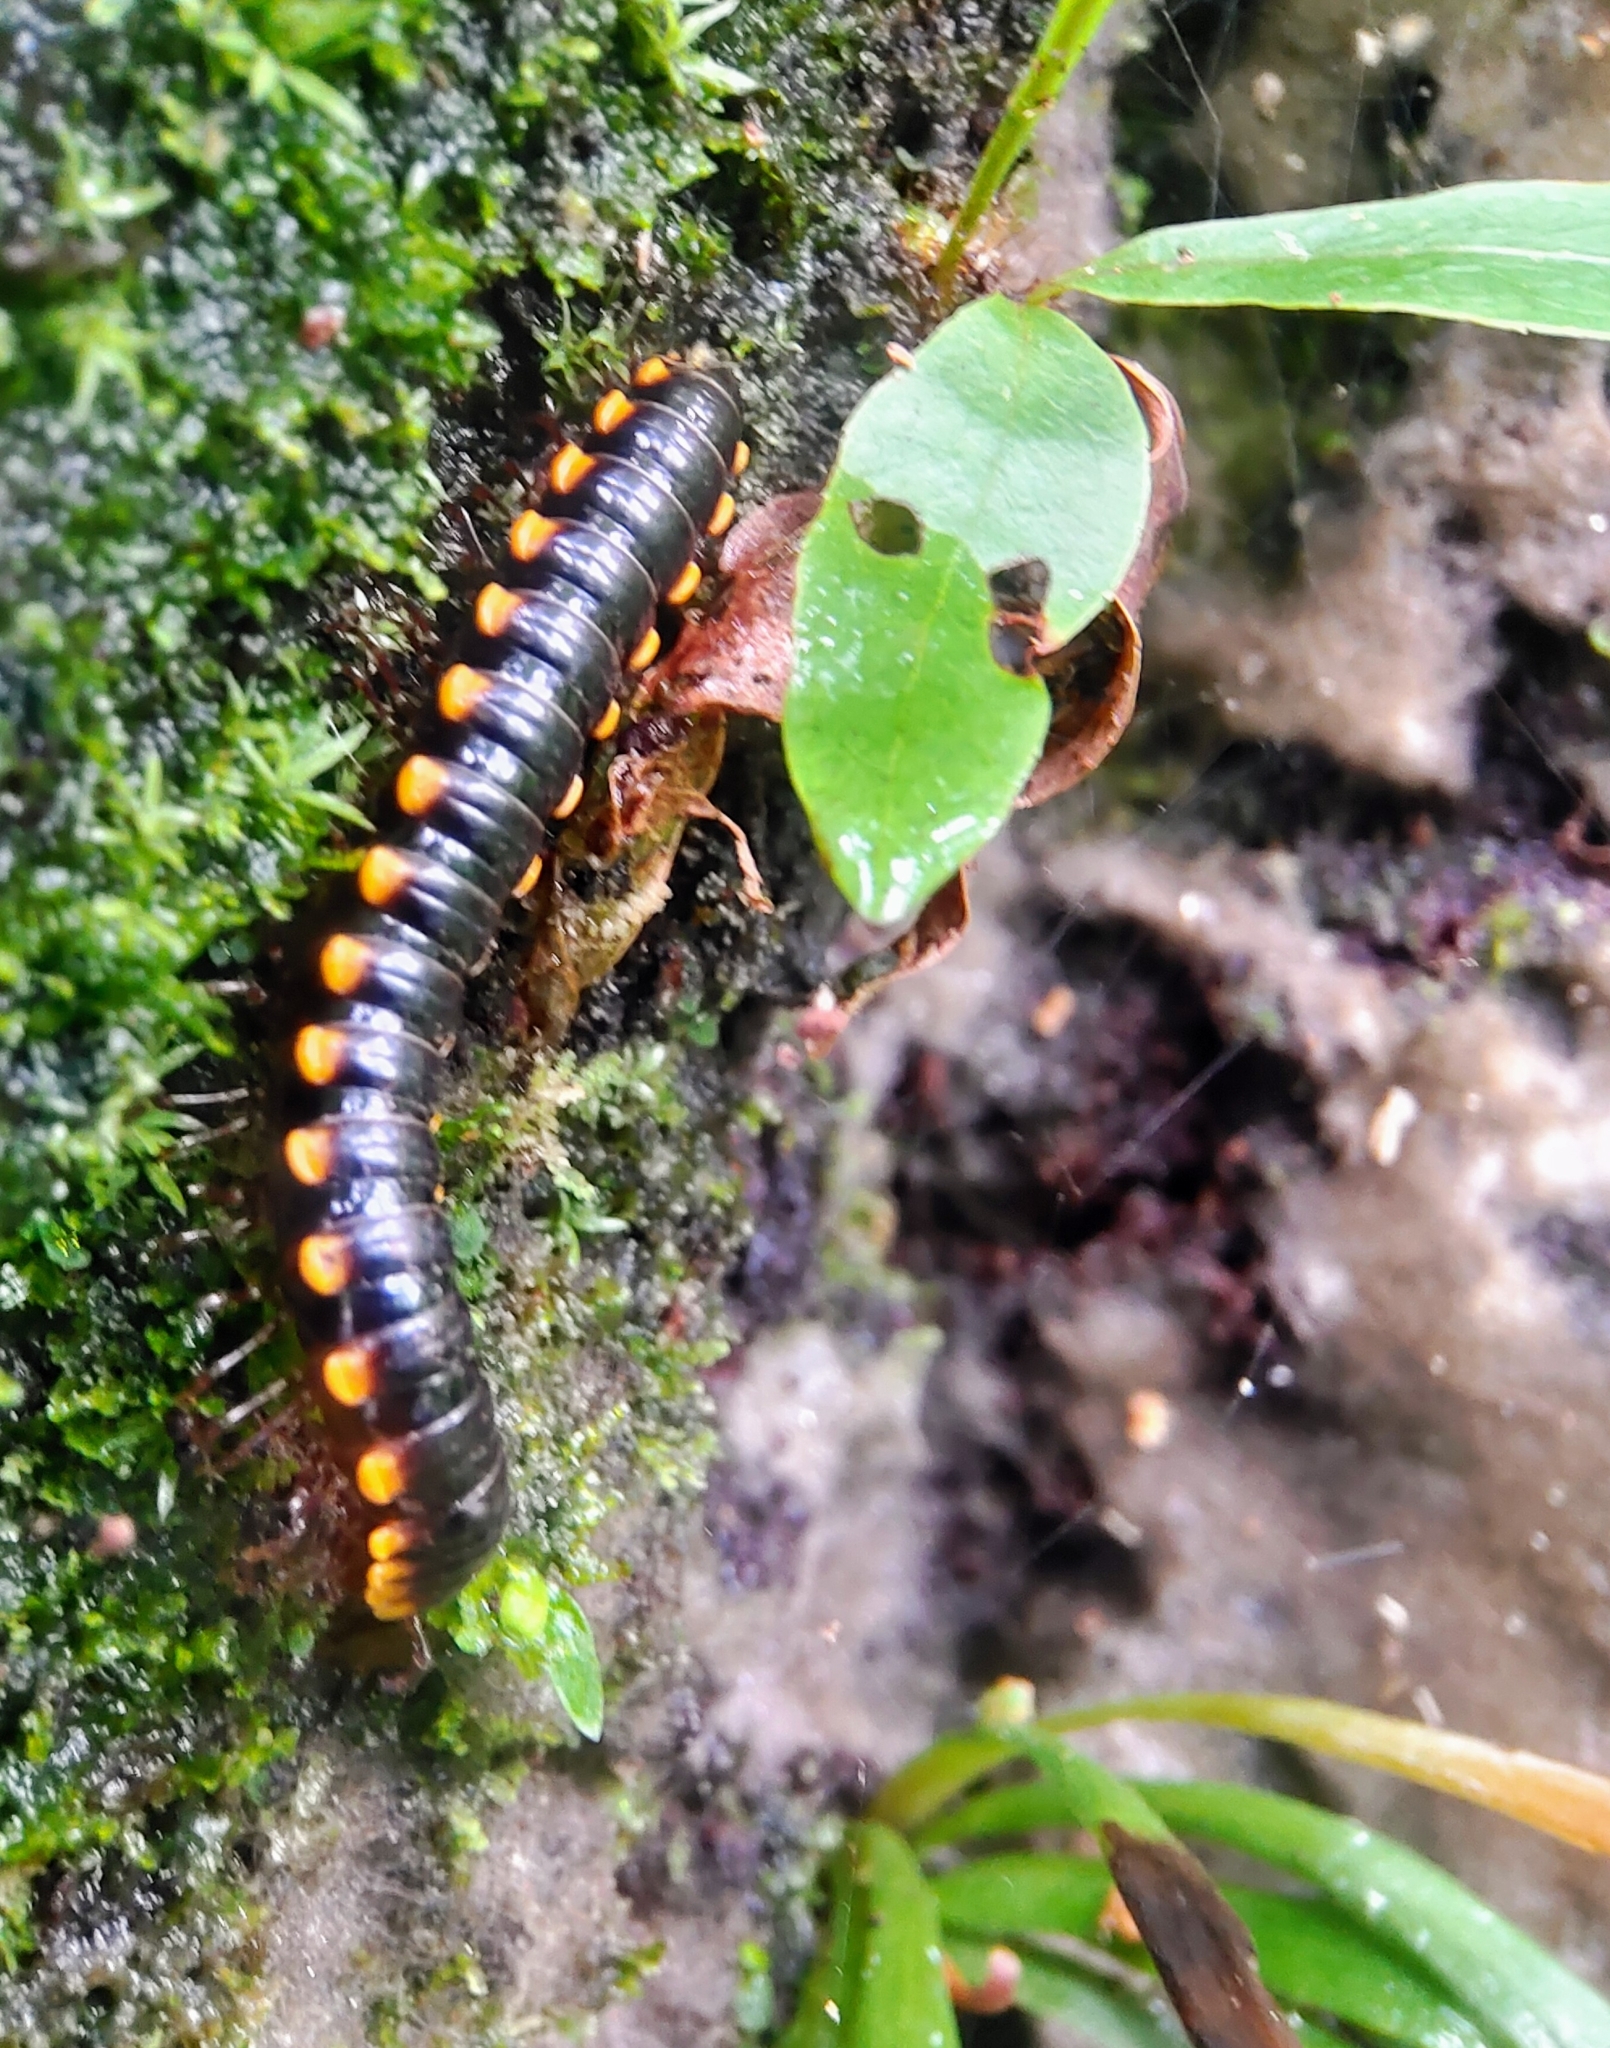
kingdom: Animalia
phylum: Arthropoda
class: Diplopoda
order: Polydesmida
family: Paradoxosomatidae
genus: Anoplodesmus
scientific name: Anoplodesmus saussurii
